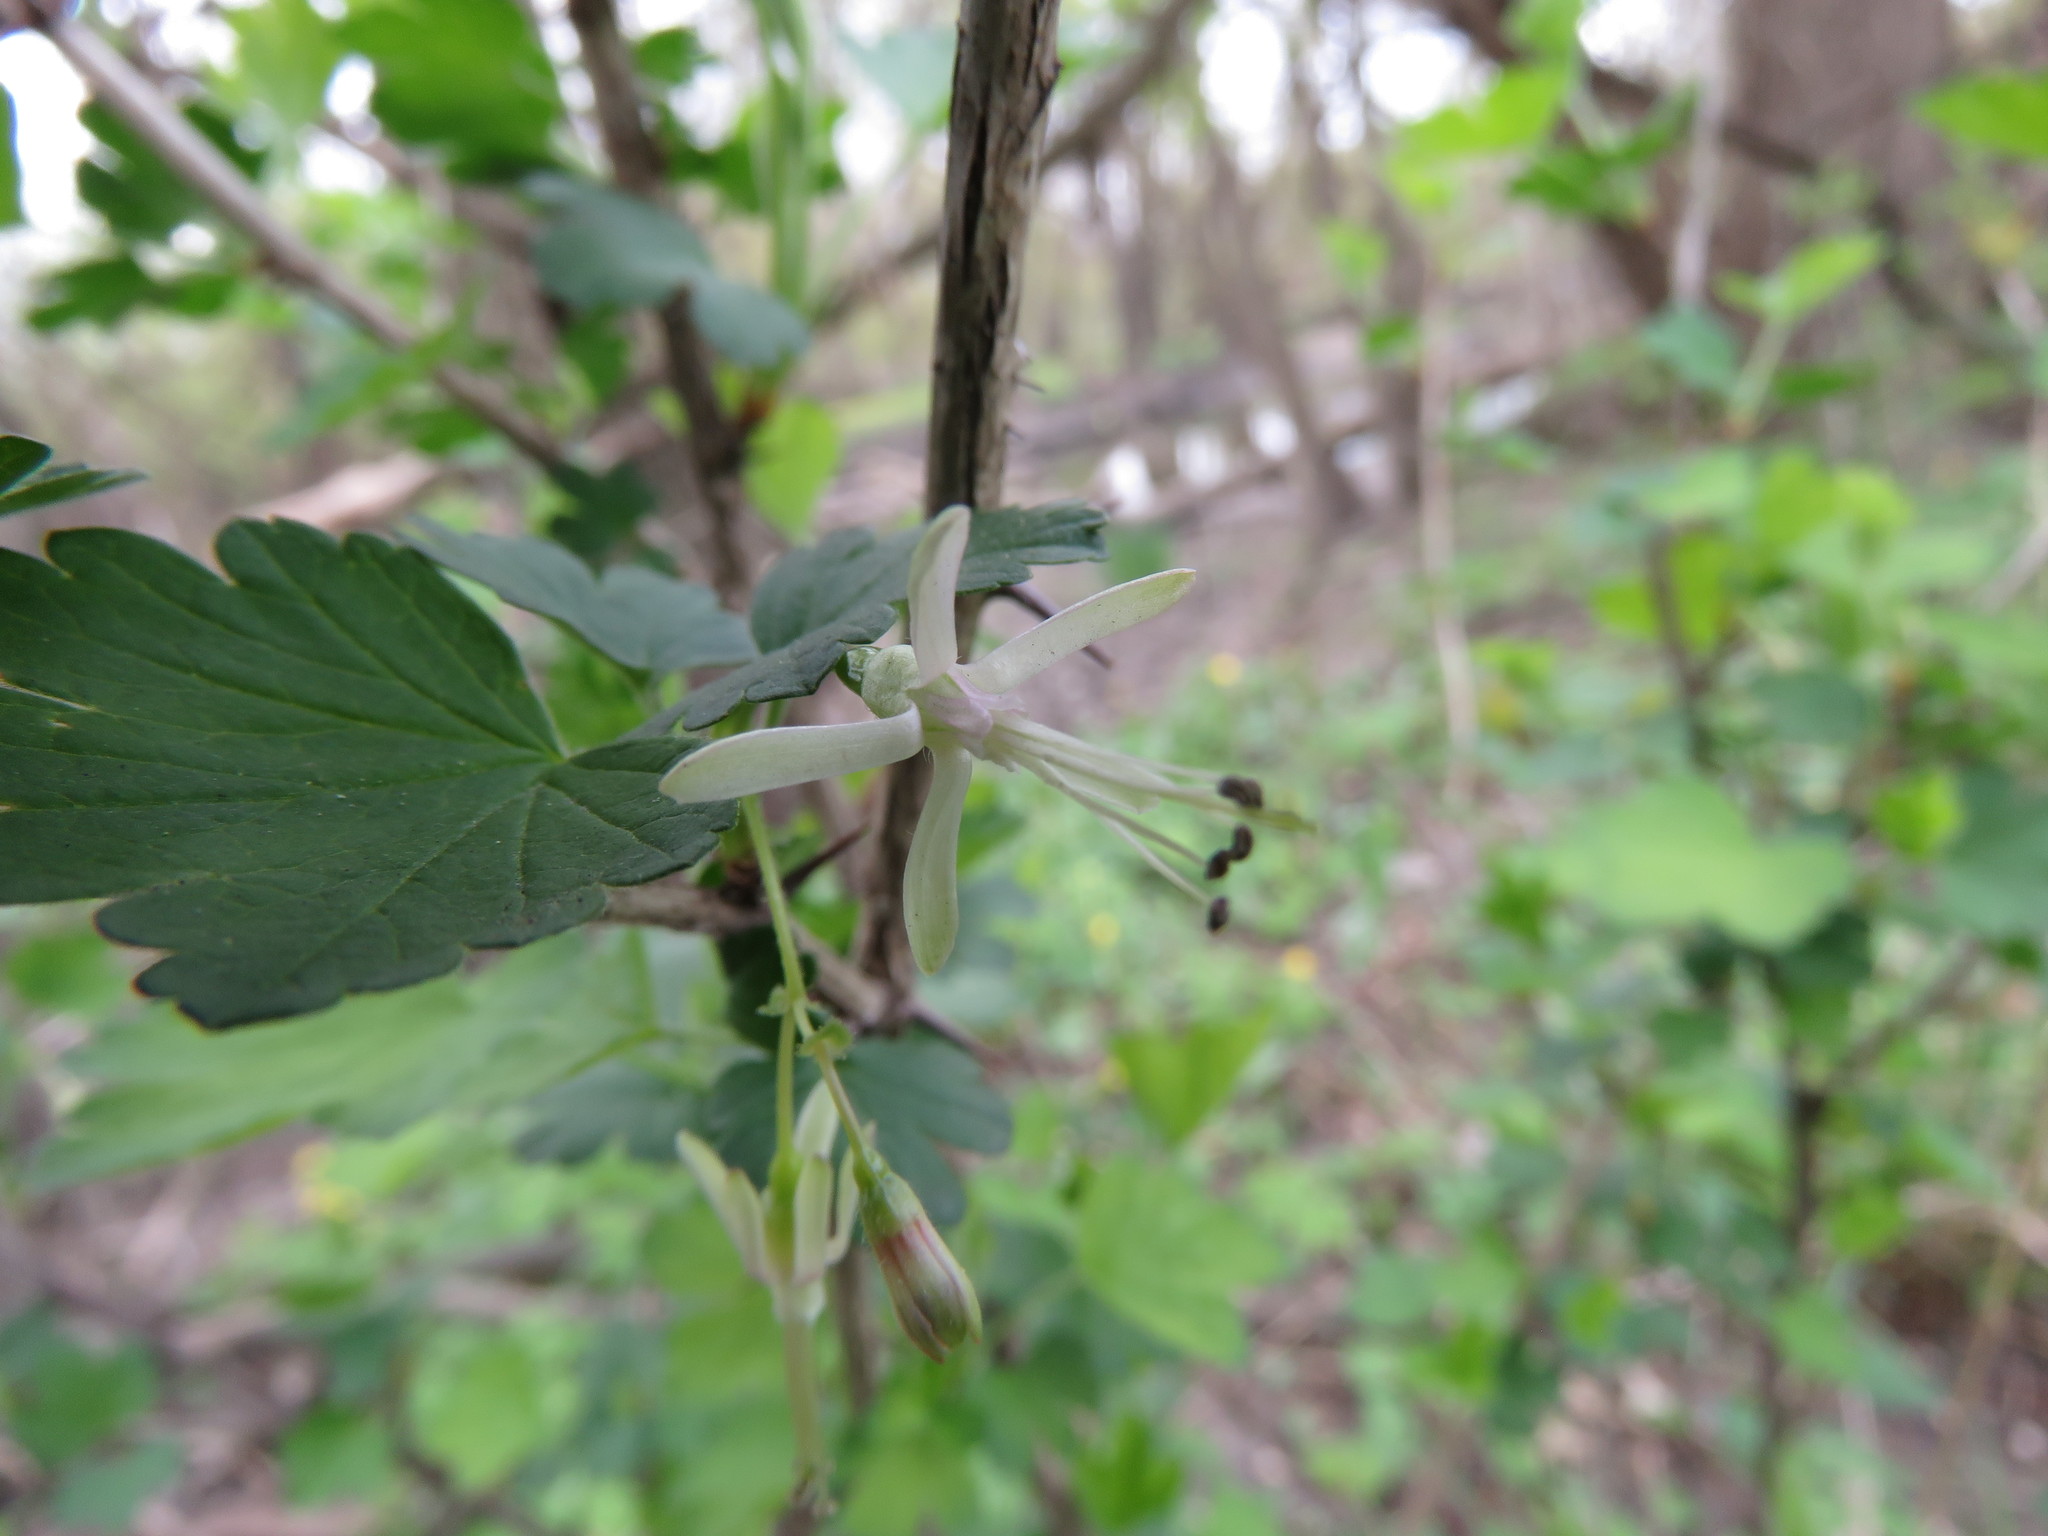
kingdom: Plantae
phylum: Tracheophyta
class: Magnoliopsida
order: Saxifragales
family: Grossulariaceae
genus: Ribes
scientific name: Ribes missouriense
